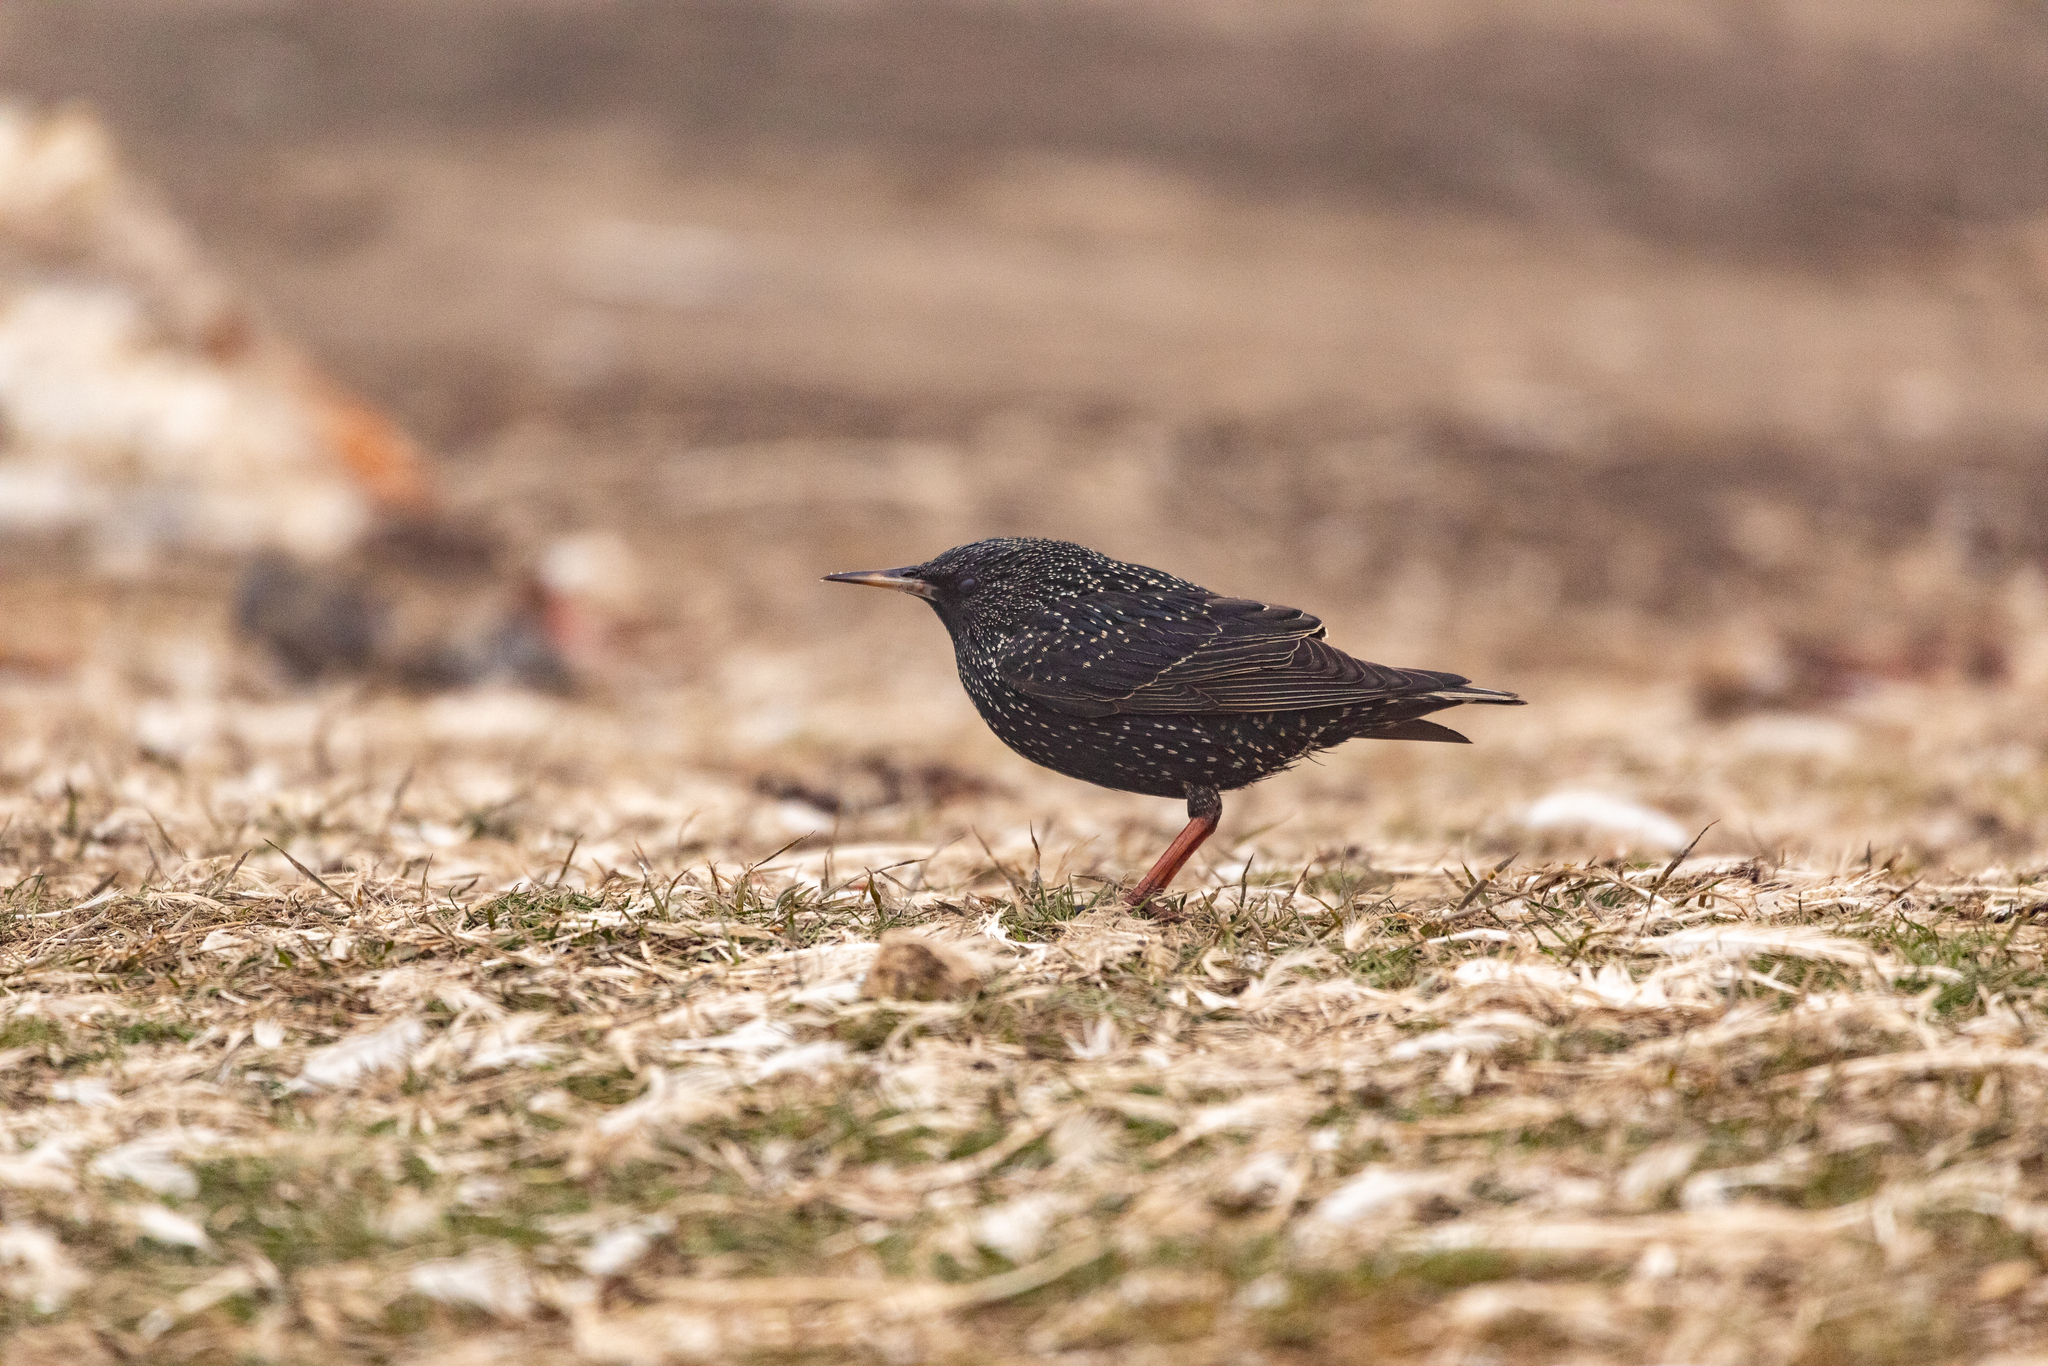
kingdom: Animalia
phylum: Chordata
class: Aves
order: Passeriformes
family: Sturnidae
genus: Sturnus
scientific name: Sturnus vulgaris
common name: Common starling
